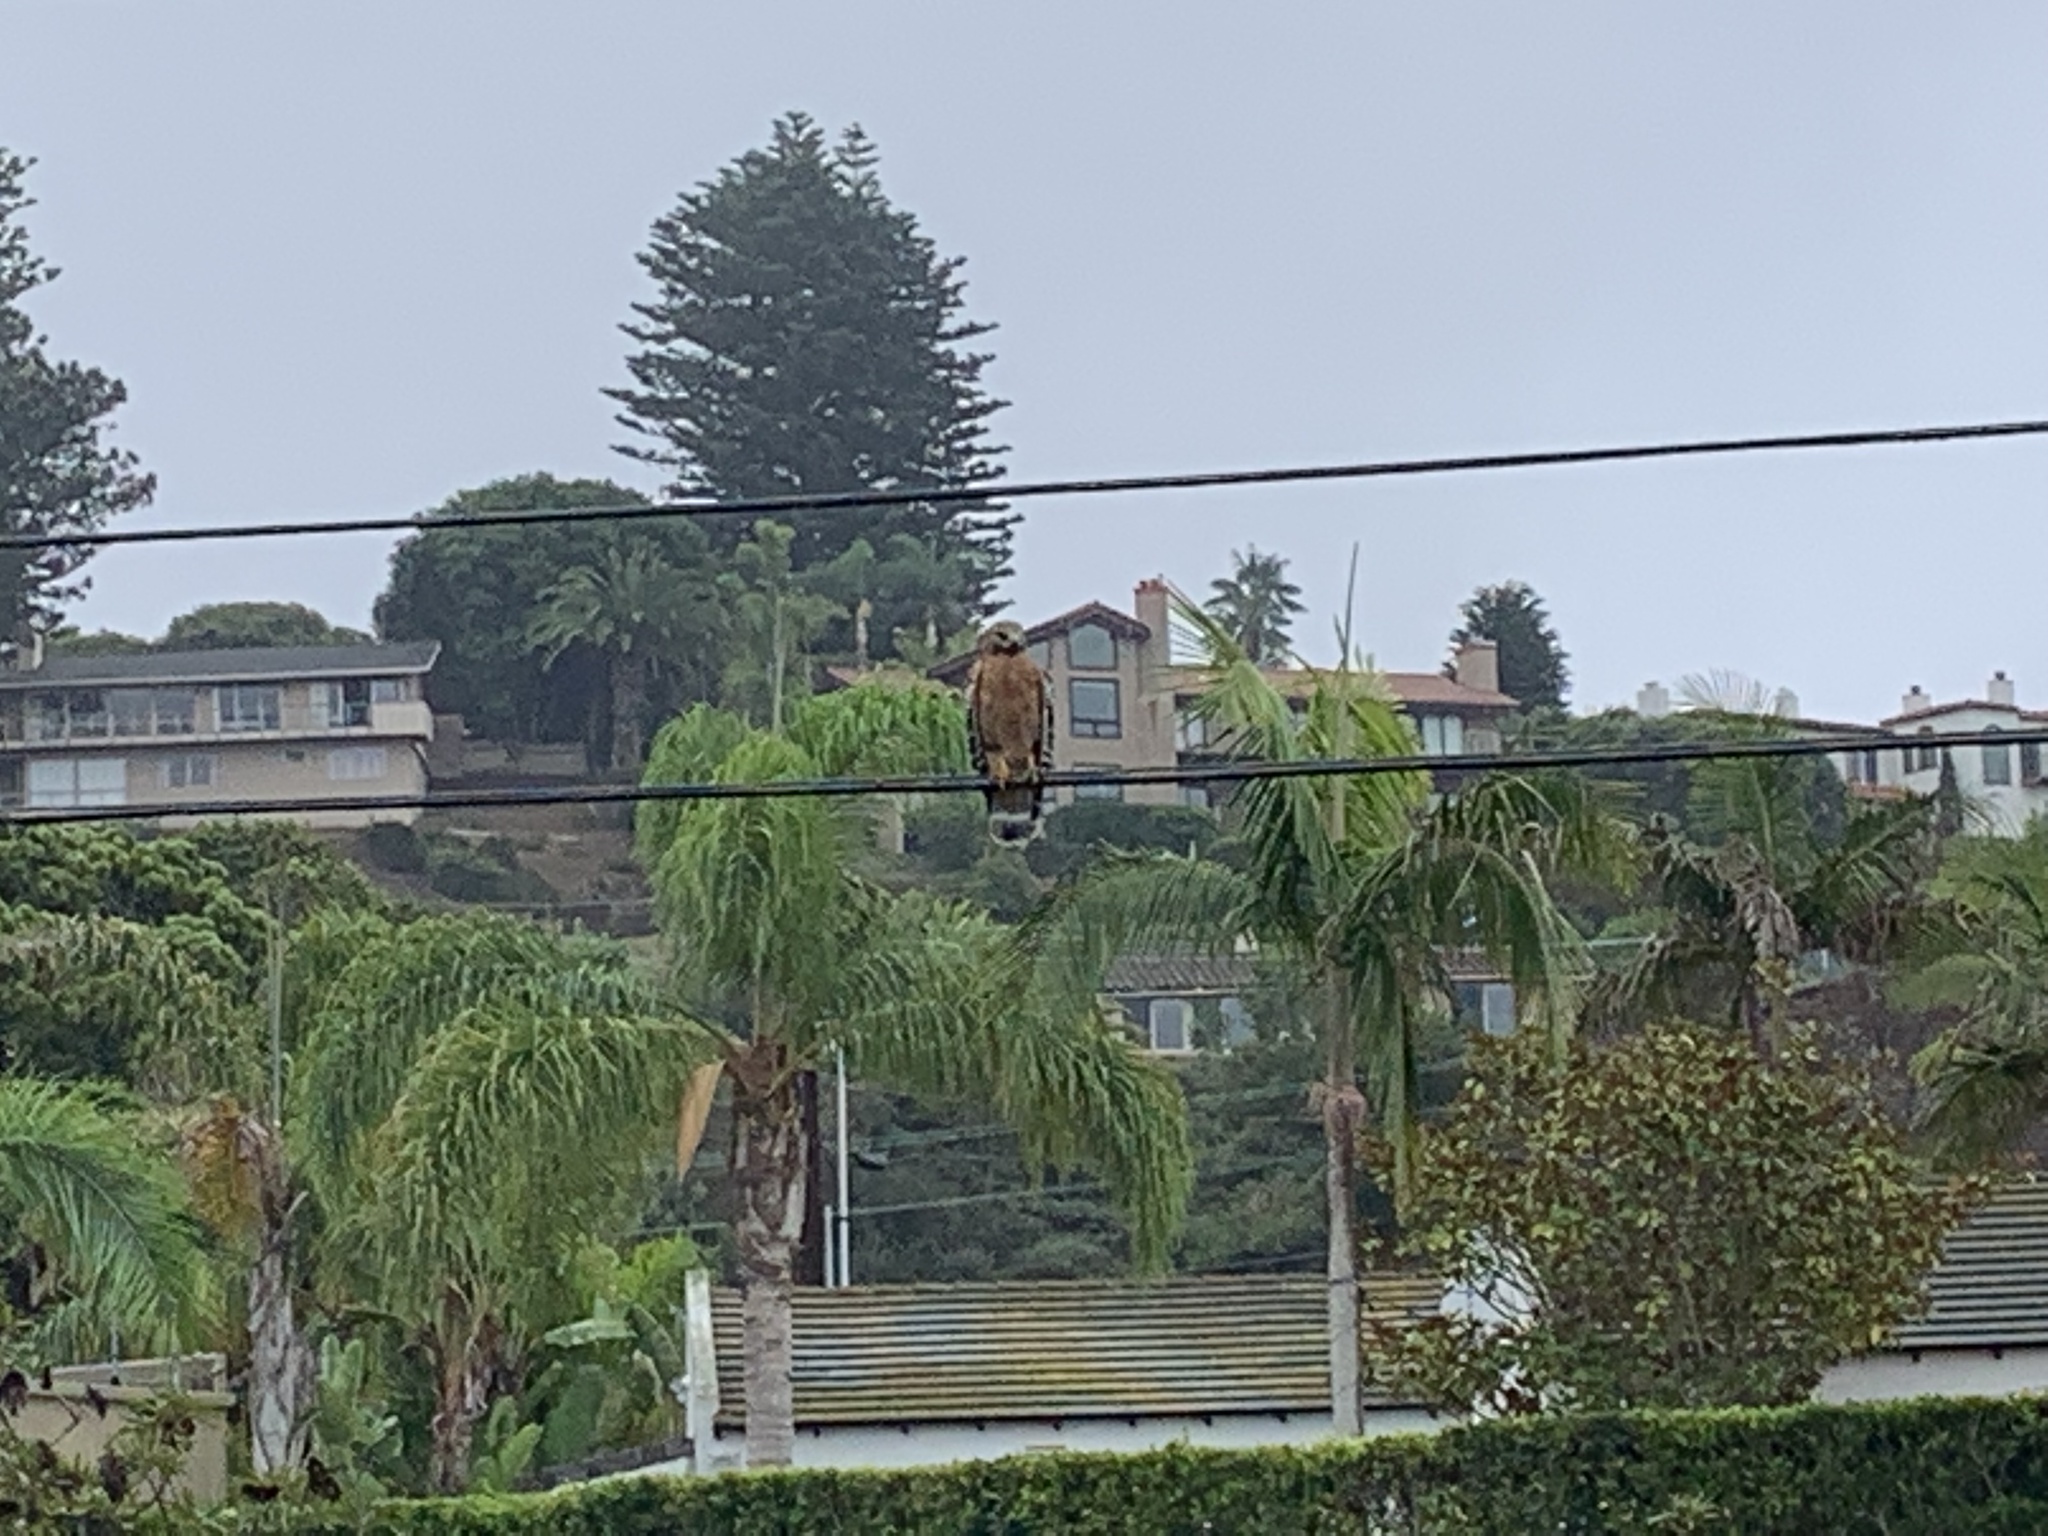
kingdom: Animalia
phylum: Chordata
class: Aves
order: Accipitriformes
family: Accipitridae
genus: Buteo
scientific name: Buteo lineatus
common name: Red-shouldered hawk
